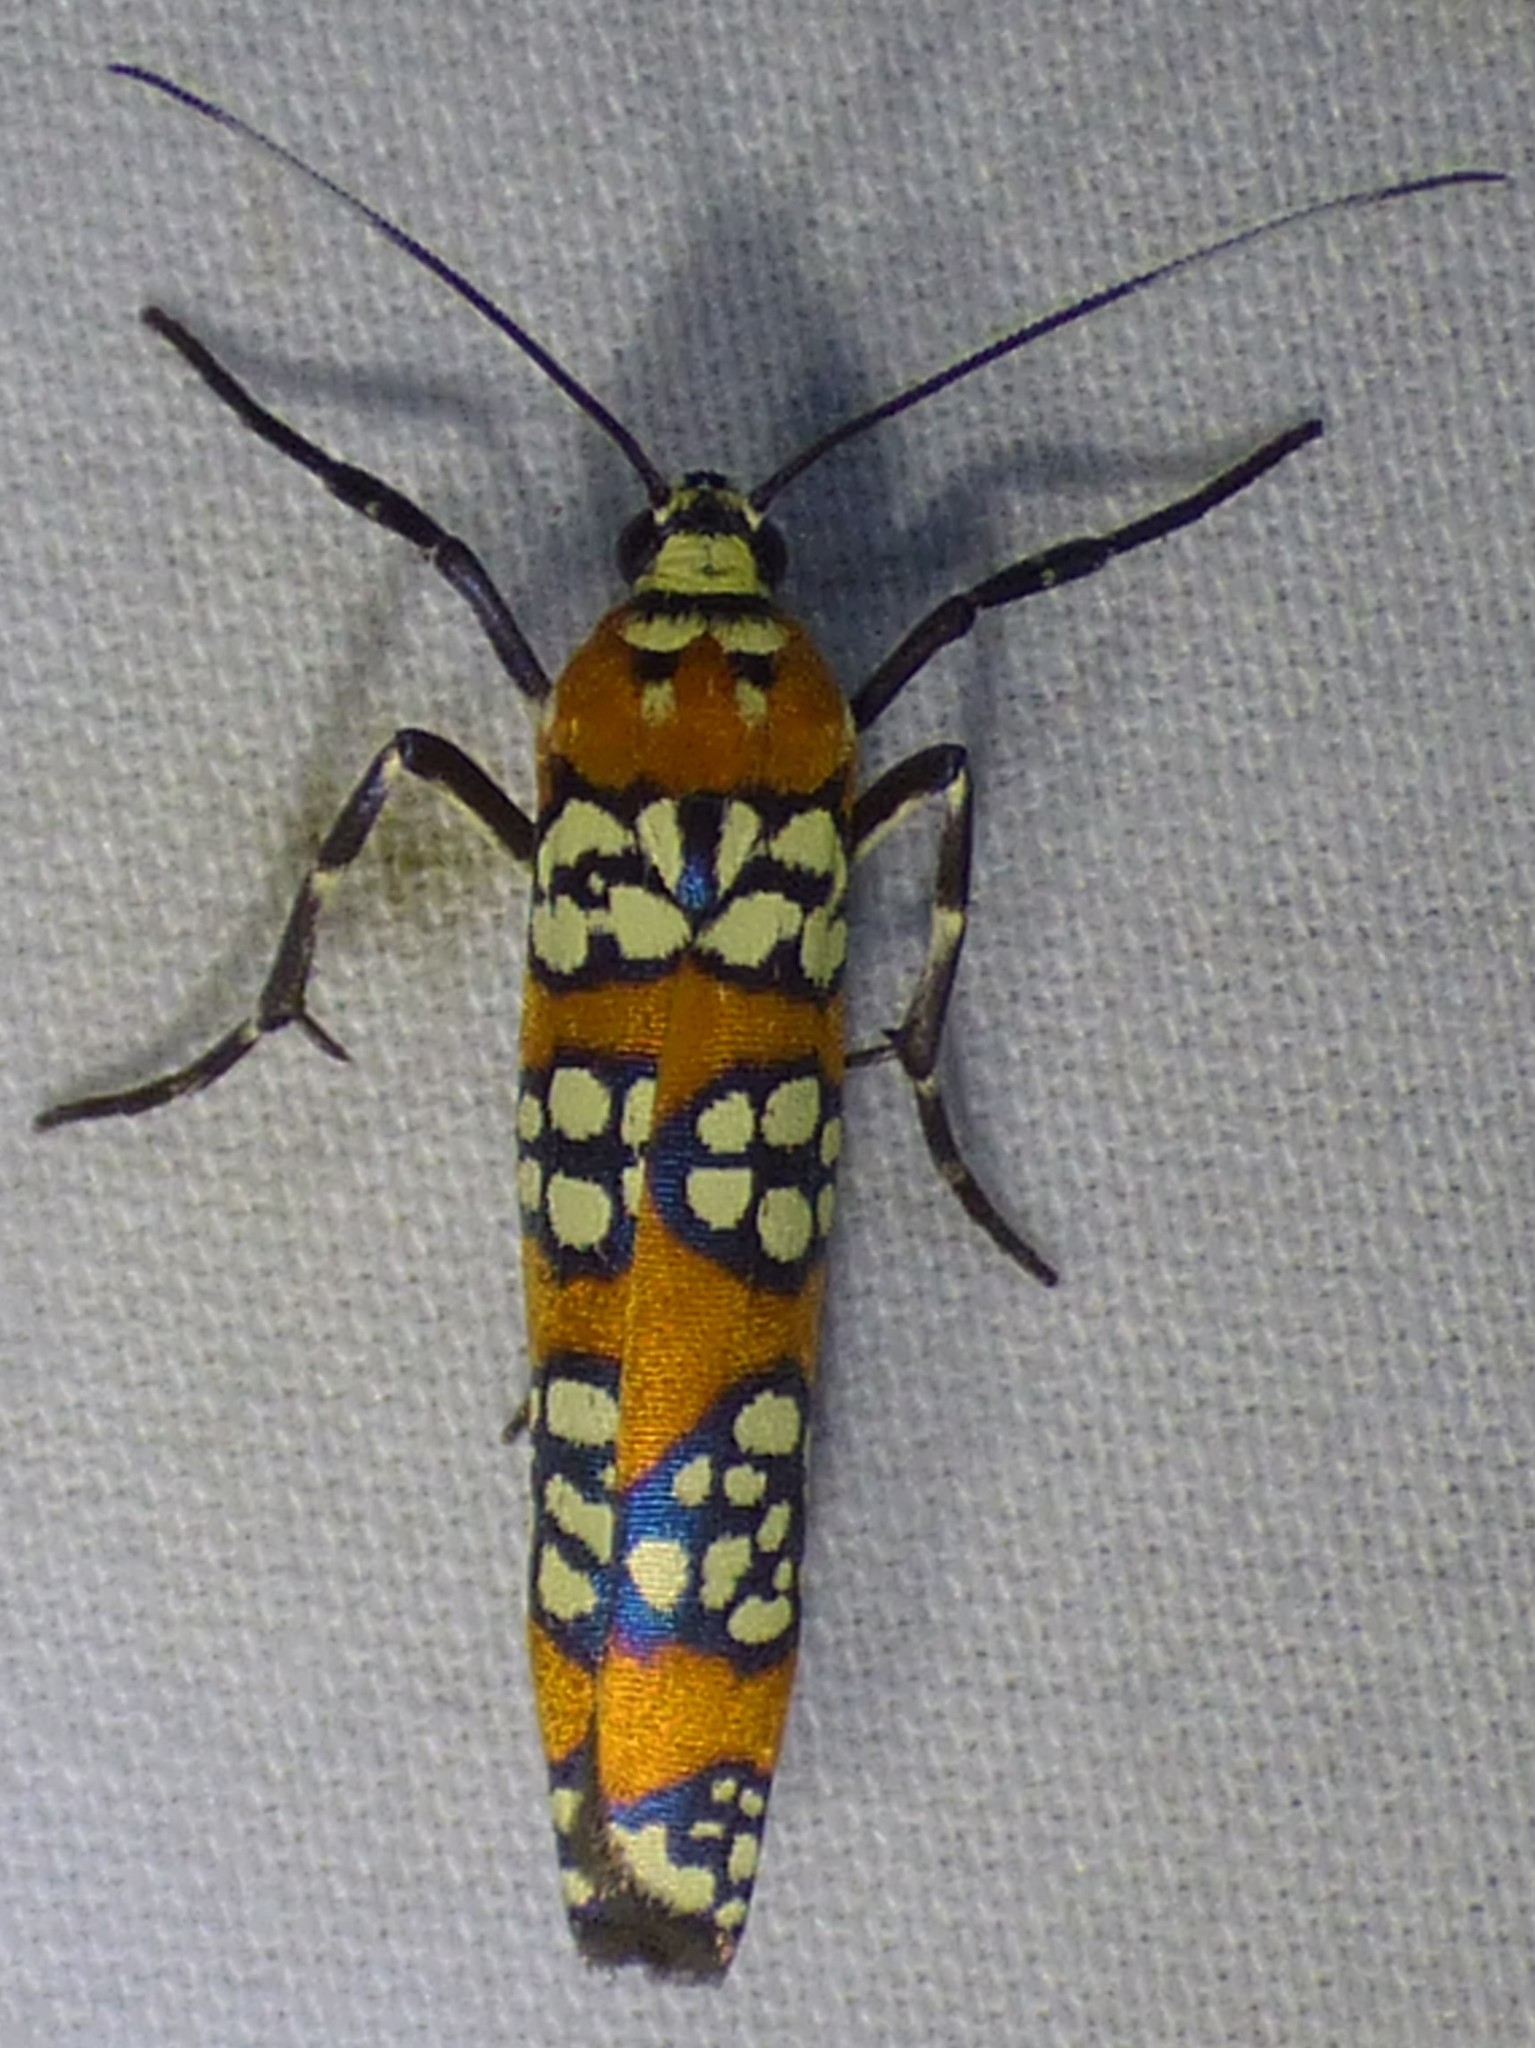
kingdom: Animalia
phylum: Arthropoda
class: Insecta
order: Lepidoptera
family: Attevidae
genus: Atteva
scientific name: Atteva punctella
